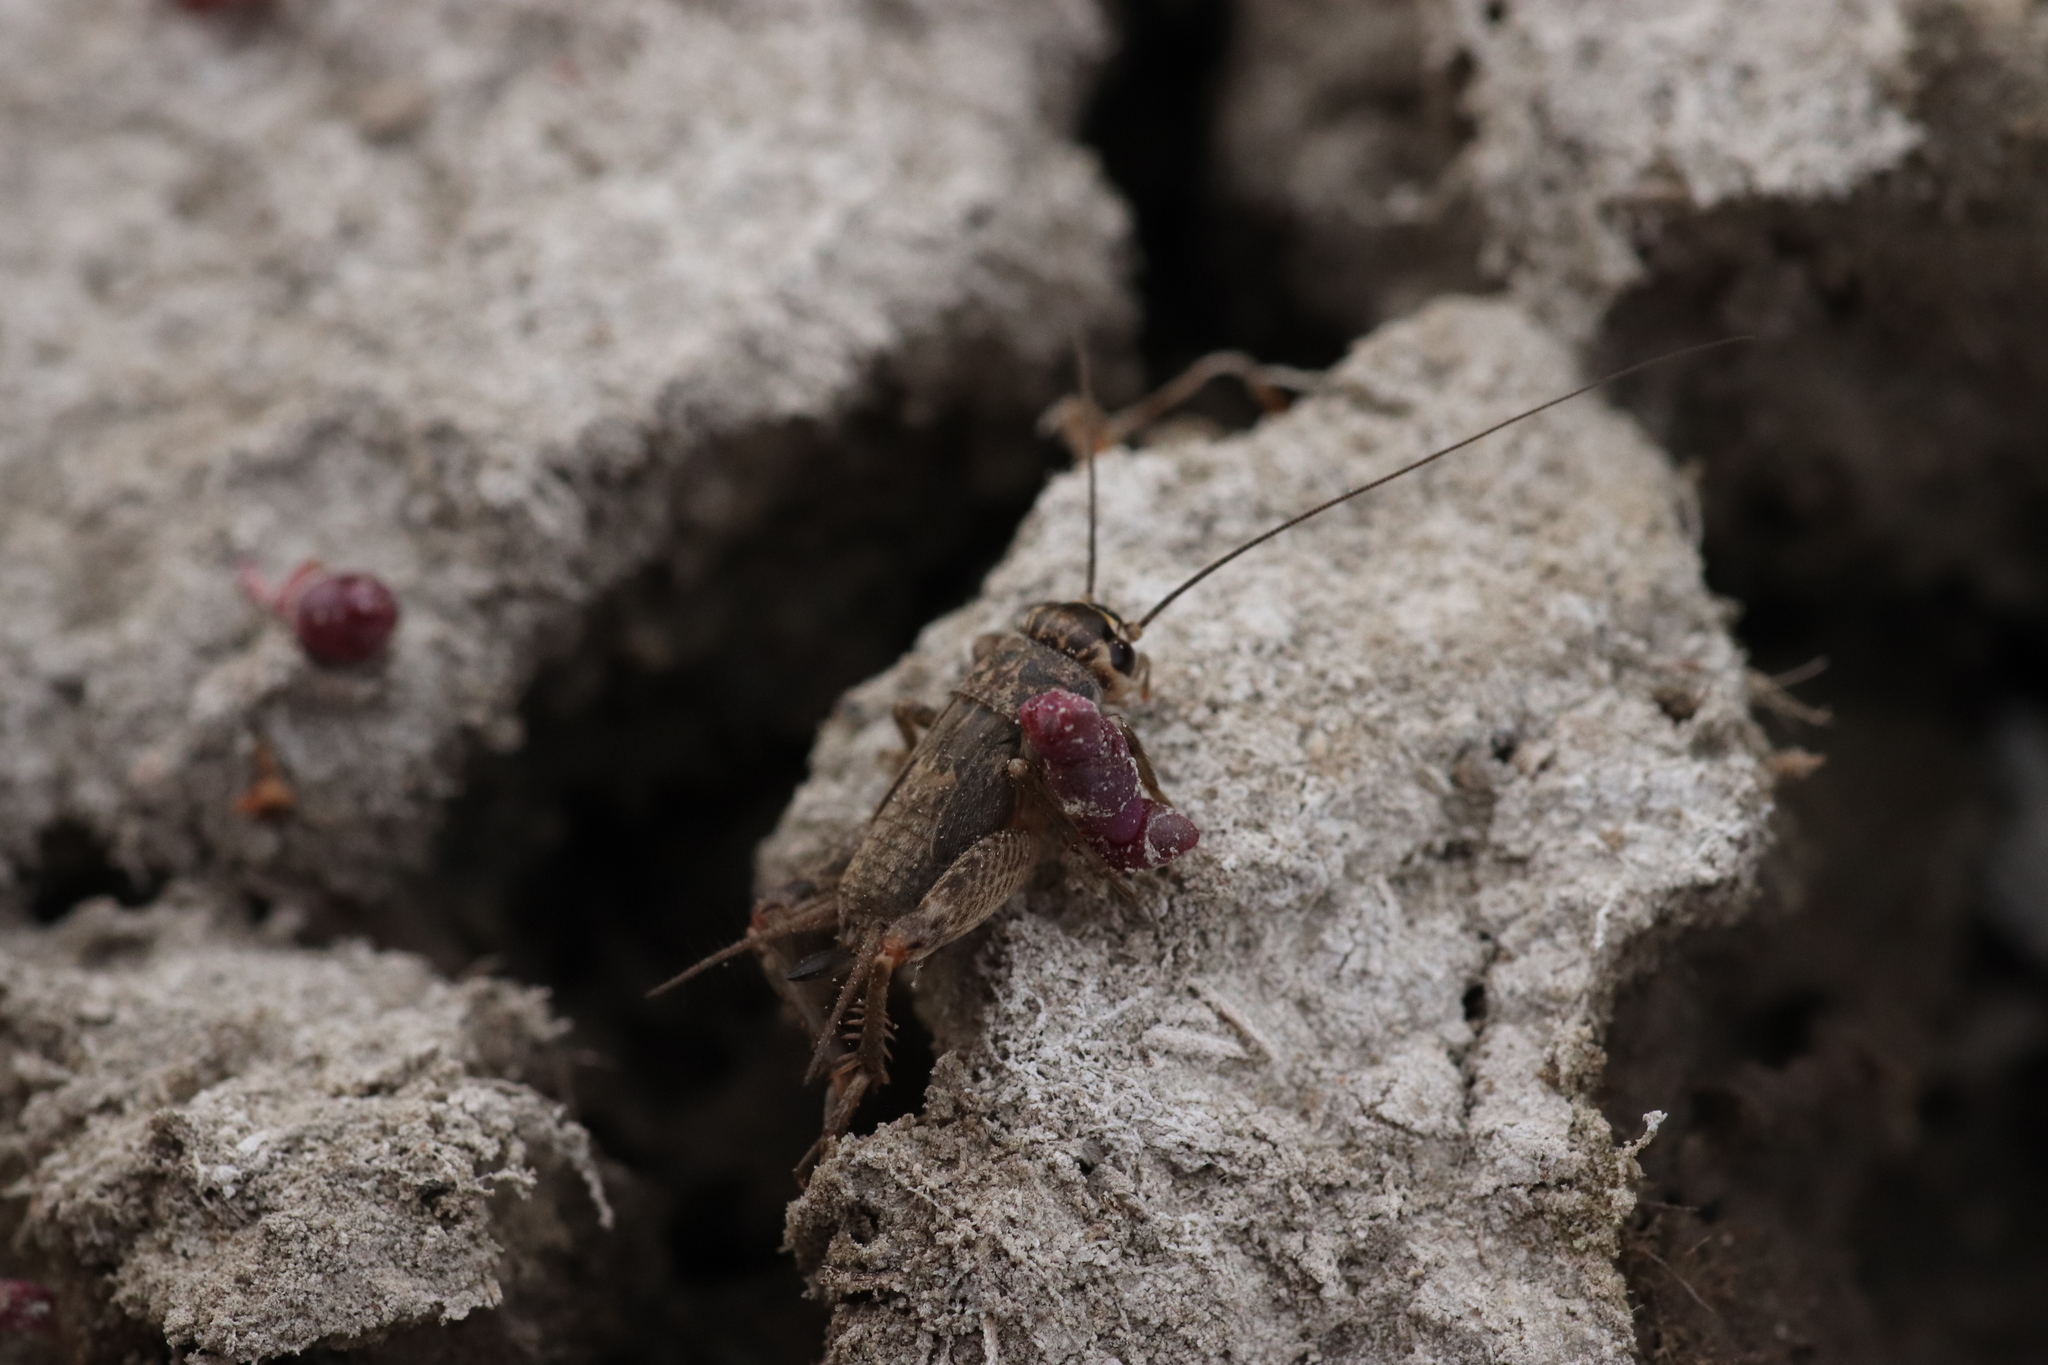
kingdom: Animalia
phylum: Arthropoda
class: Insecta
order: Orthoptera
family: Gryllidae
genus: Eumodicogryllus
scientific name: Eumodicogryllus bordigalensis
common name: Bordeaux cricket
